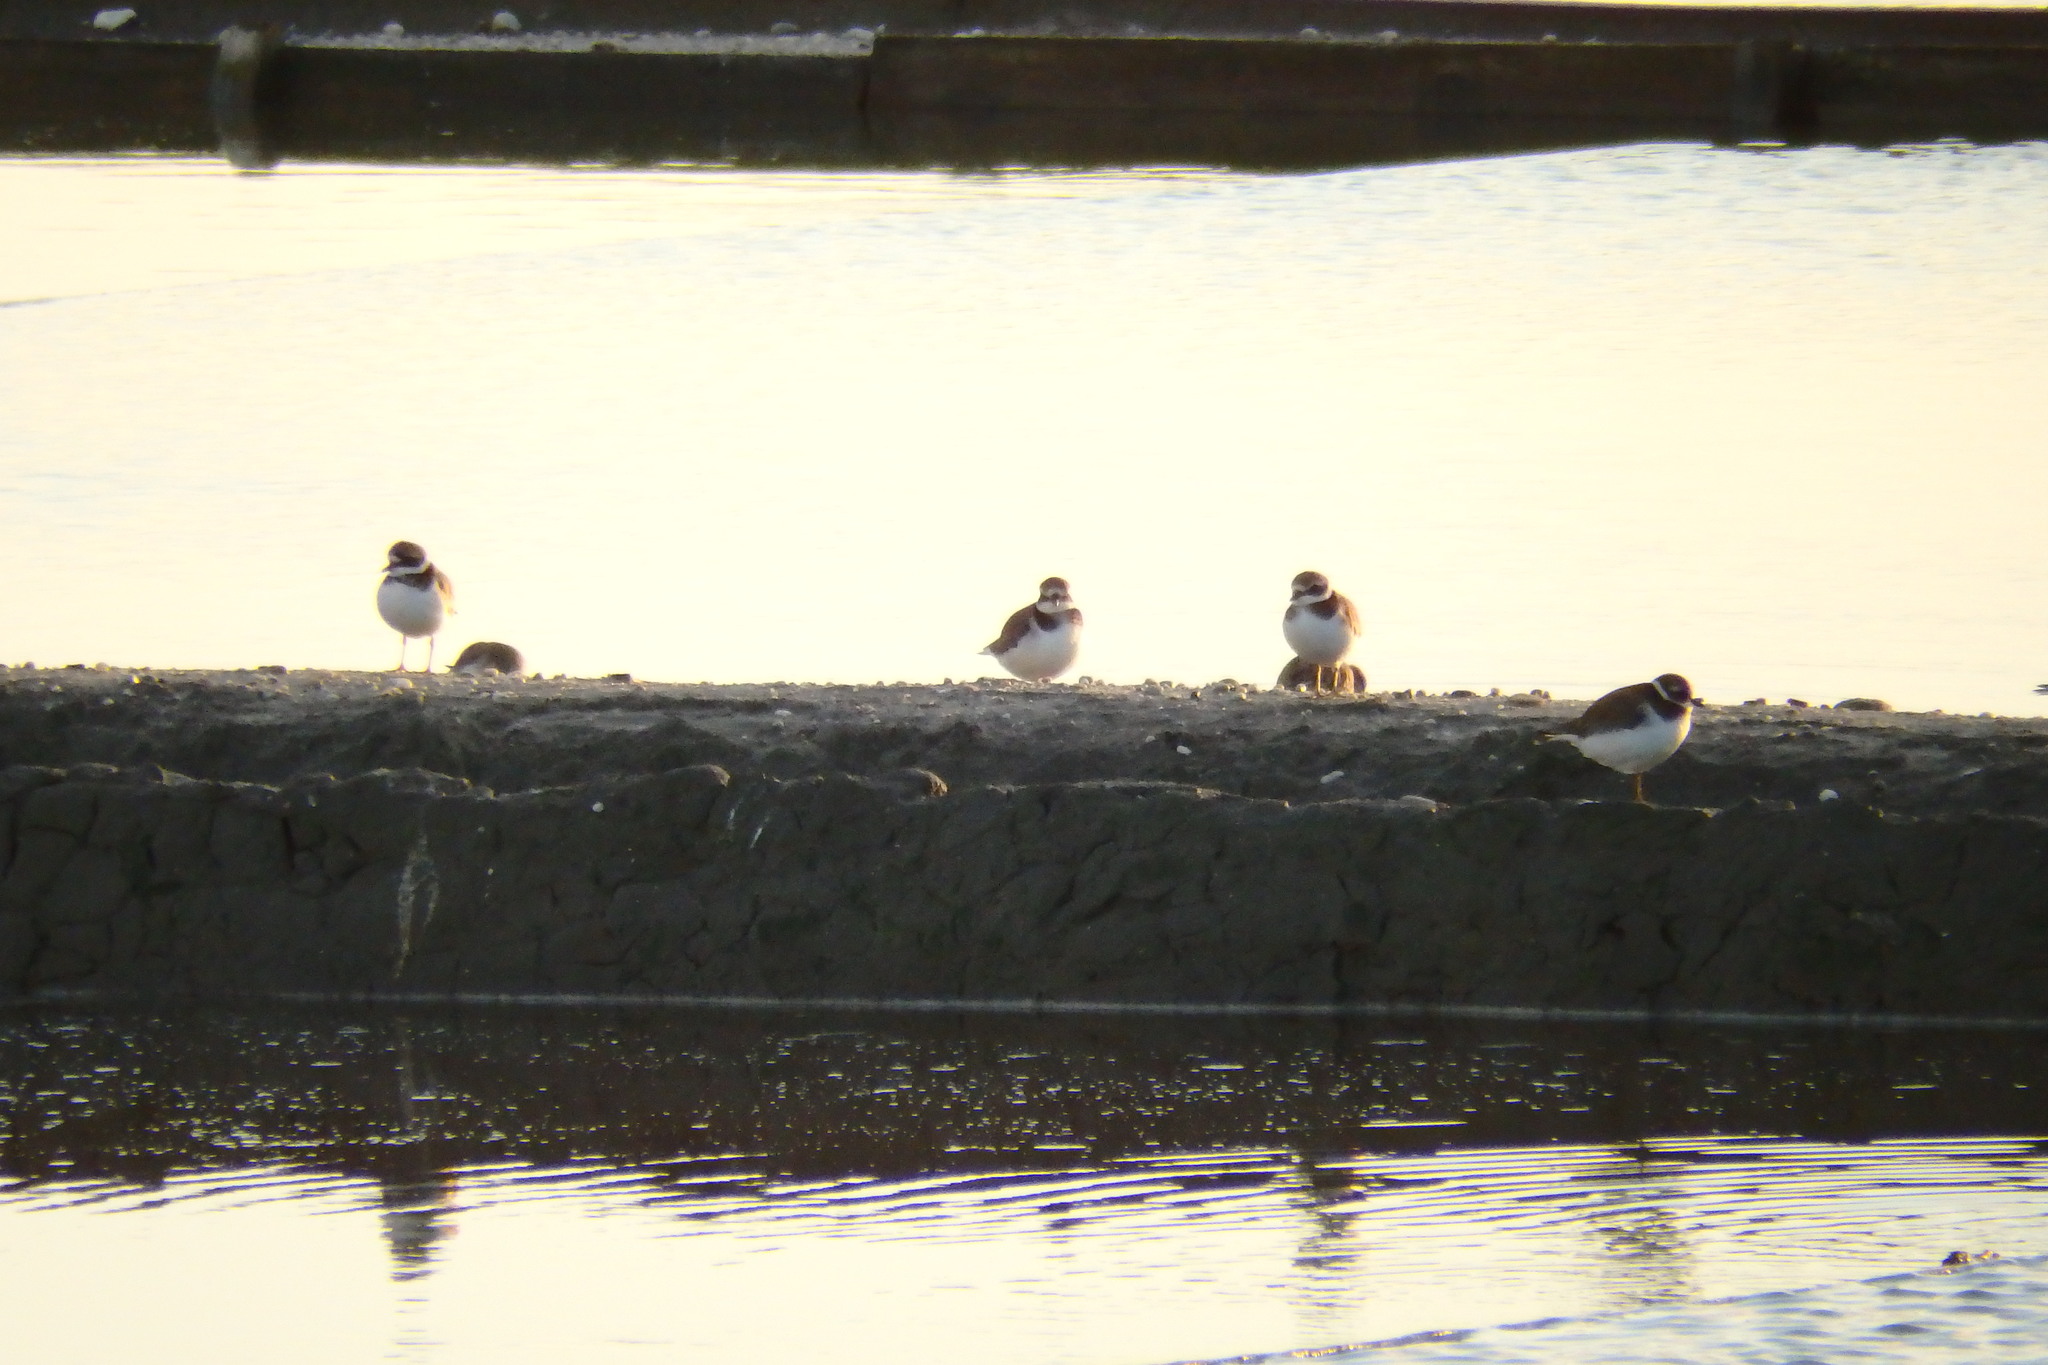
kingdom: Animalia
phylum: Chordata
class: Aves
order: Charadriiformes
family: Charadriidae
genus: Charadrius
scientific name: Charadrius hiaticula
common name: Common ringed plover
